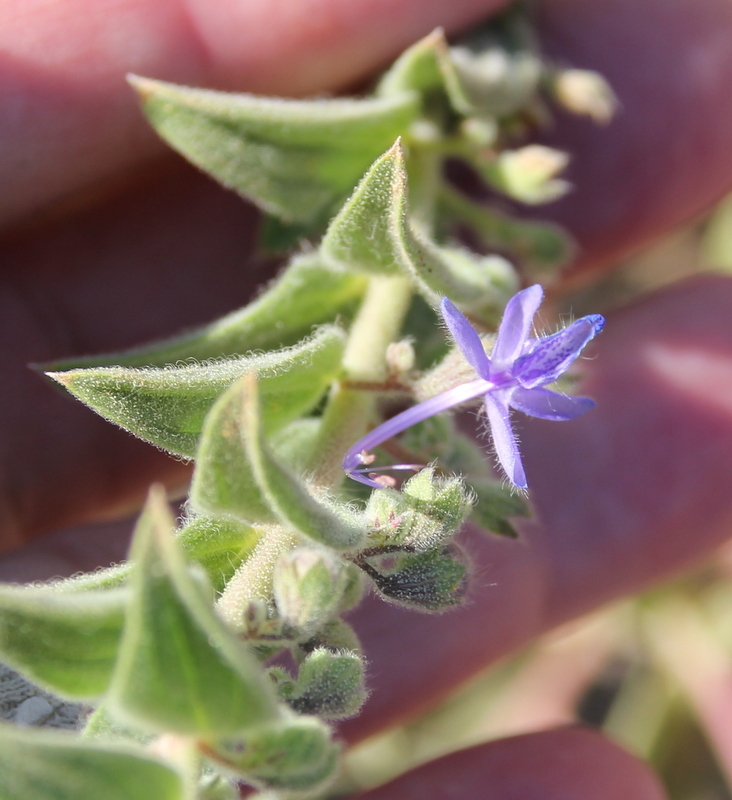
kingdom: Plantae
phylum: Tracheophyta
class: Magnoliopsida
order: Lamiales
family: Lamiaceae
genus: Trichostema
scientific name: Trichostema lanceolatum
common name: Vinegar-weed
